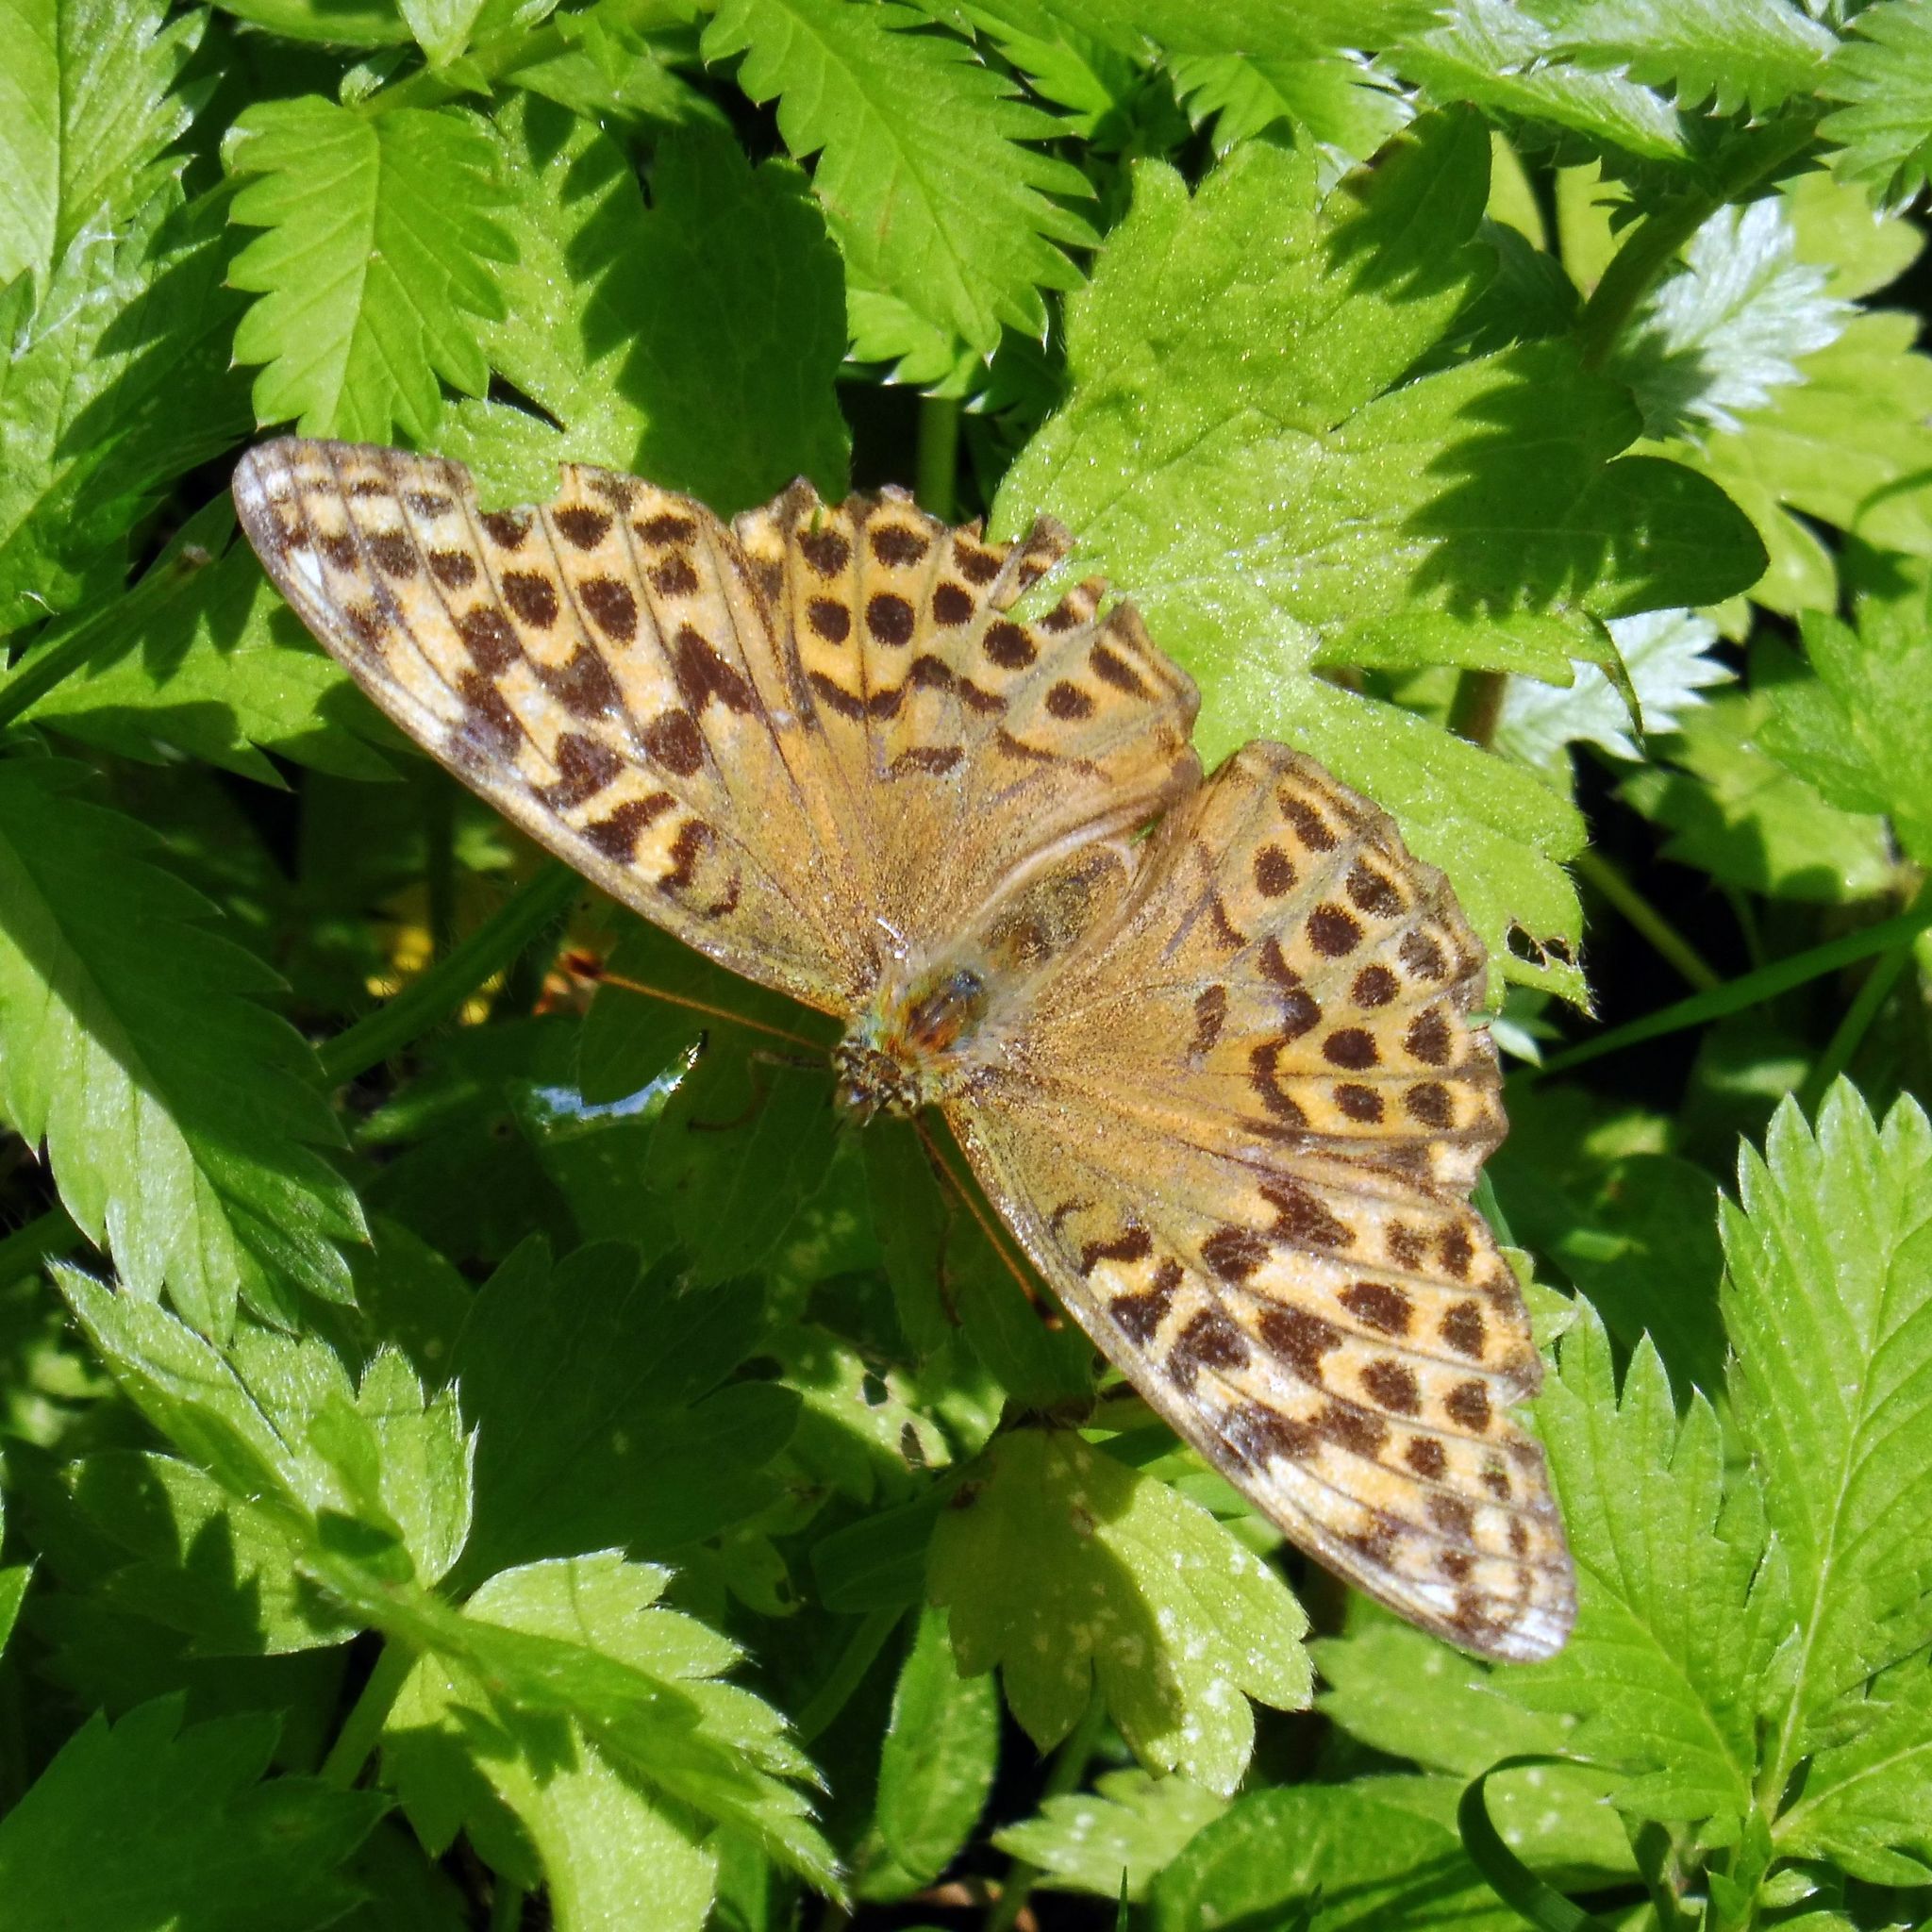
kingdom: Animalia
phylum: Arthropoda
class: Insecta
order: Lepidoptera
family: Nymphalidae
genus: Argynnis
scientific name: Argynnis paphia
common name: Silver-washed fritillary
